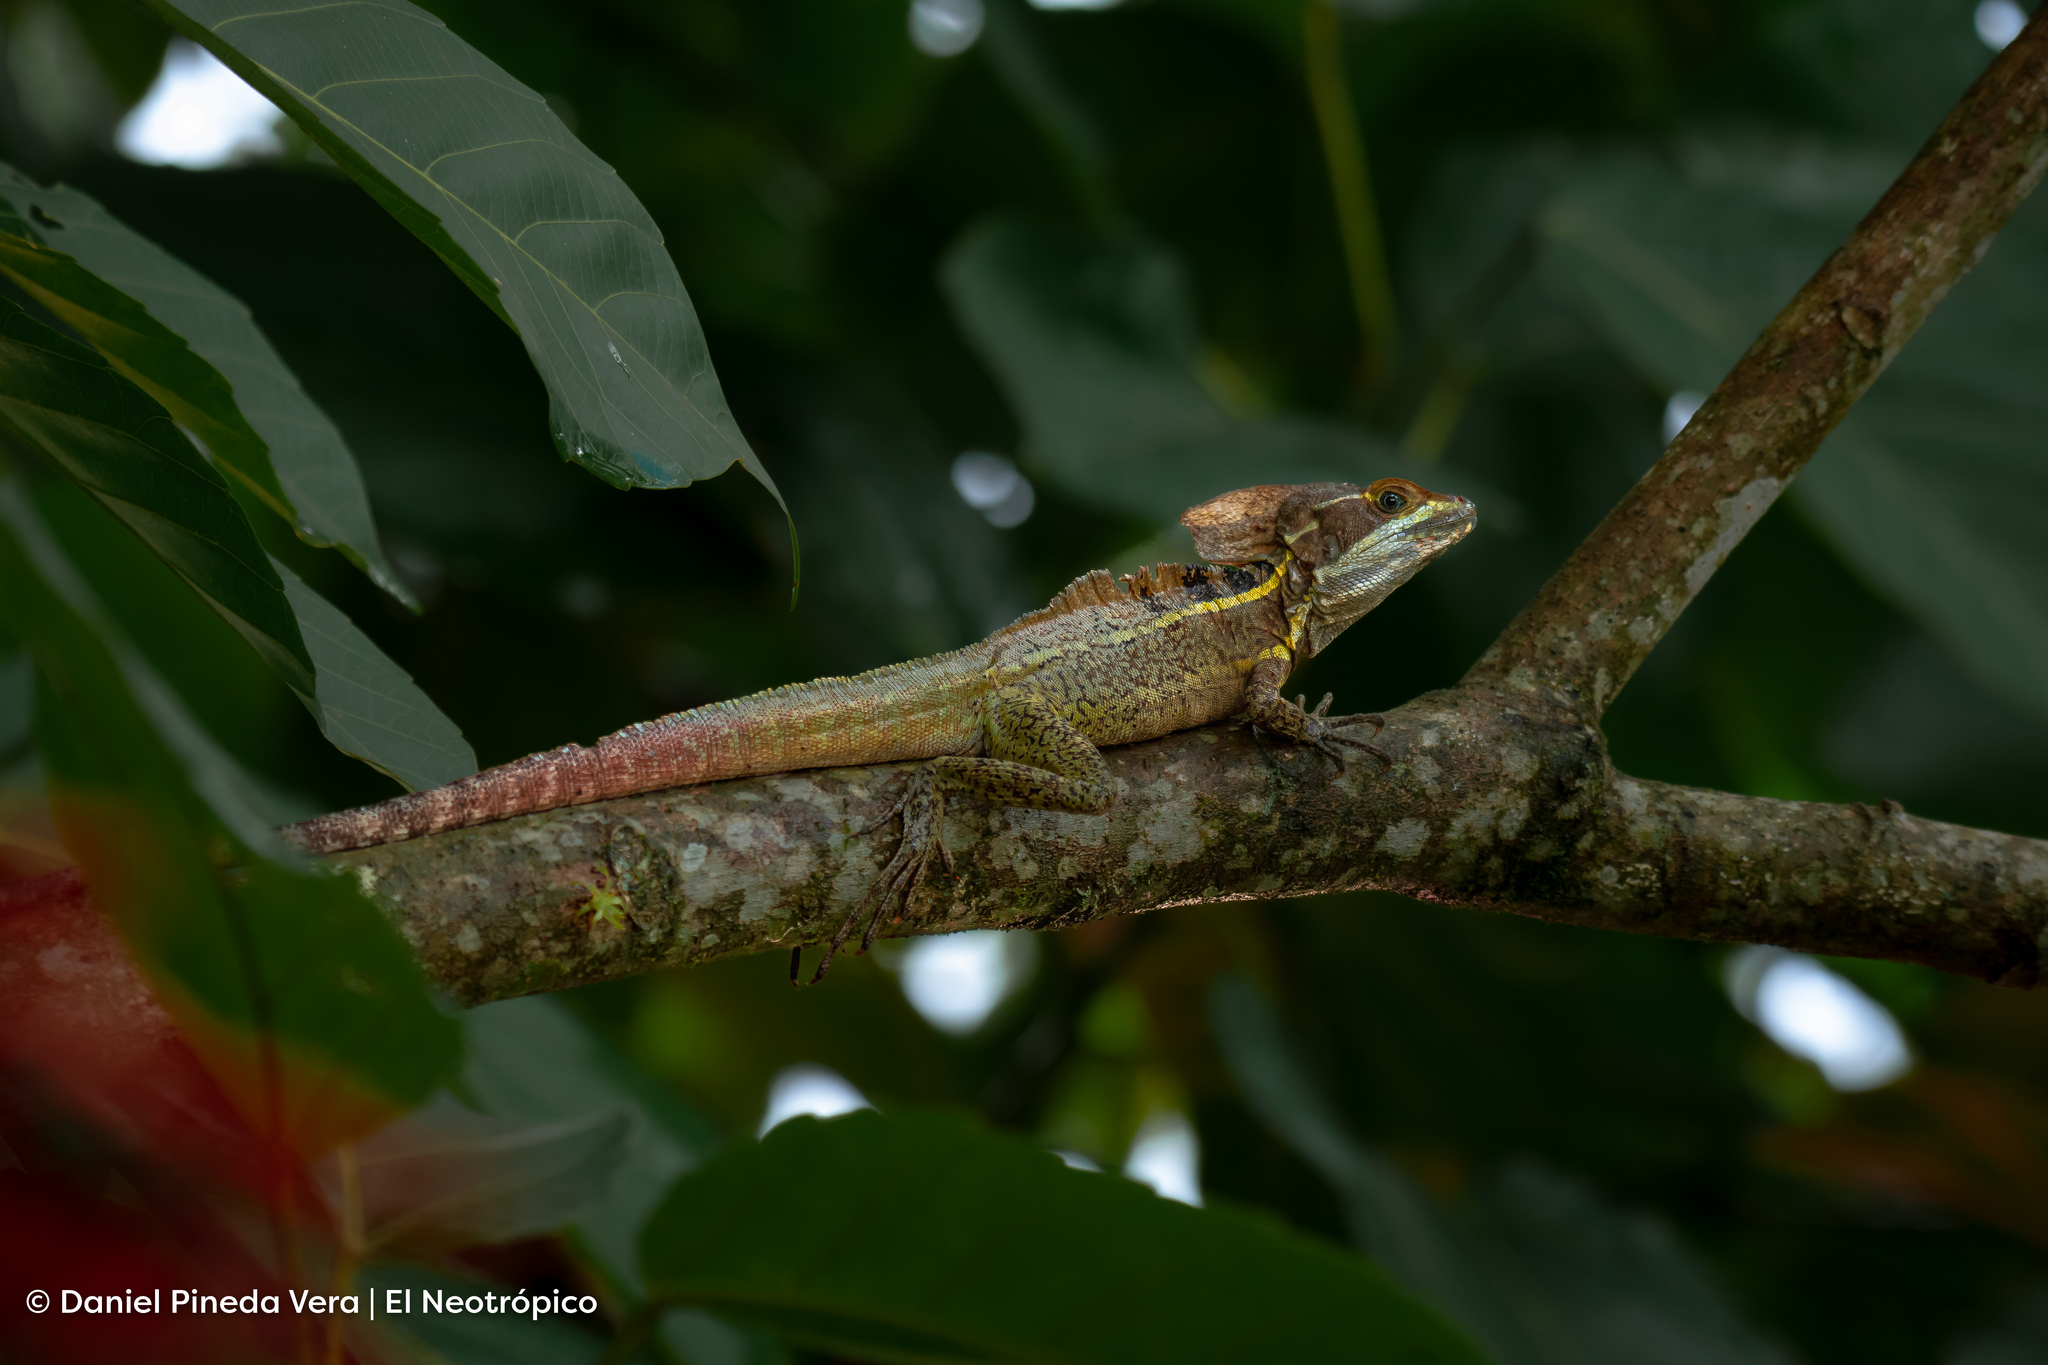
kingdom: Animalia
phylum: Chordata
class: Squamata
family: Corytophanidae
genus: Basiliscus
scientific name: Basiliscus vittatus
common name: Brown basilisk
